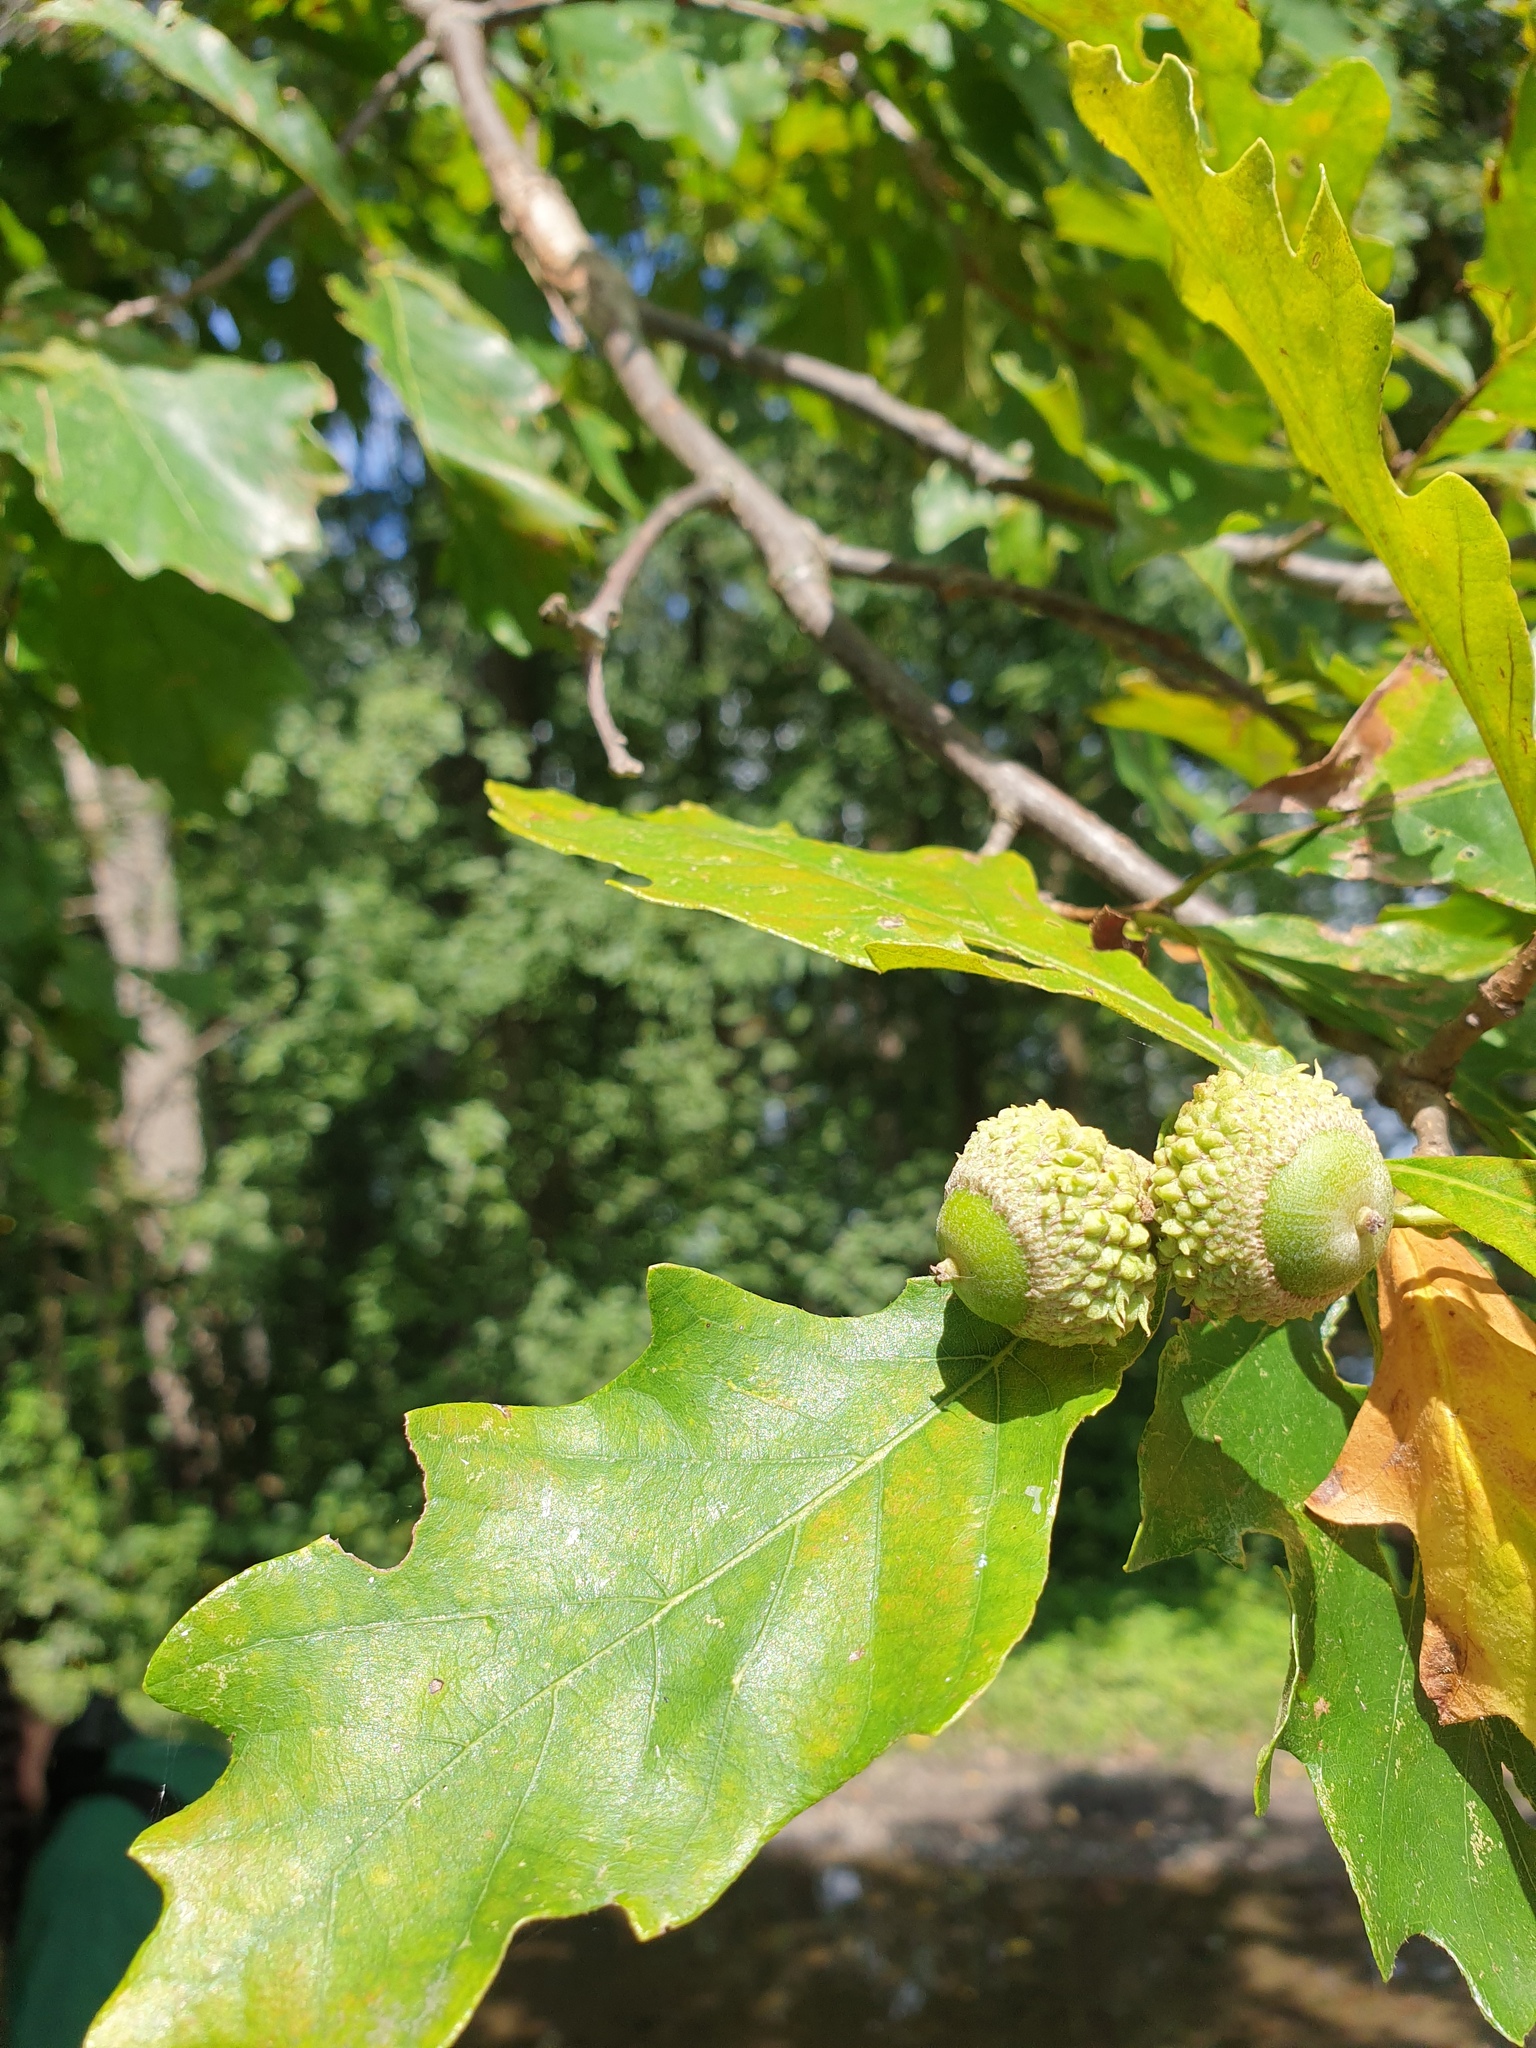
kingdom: Plantae
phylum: Tracheophyta
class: Magnoliopsida
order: Fagales
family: Fagaceae
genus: Quercus
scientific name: Quercus bicolor
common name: Swamp white oak
